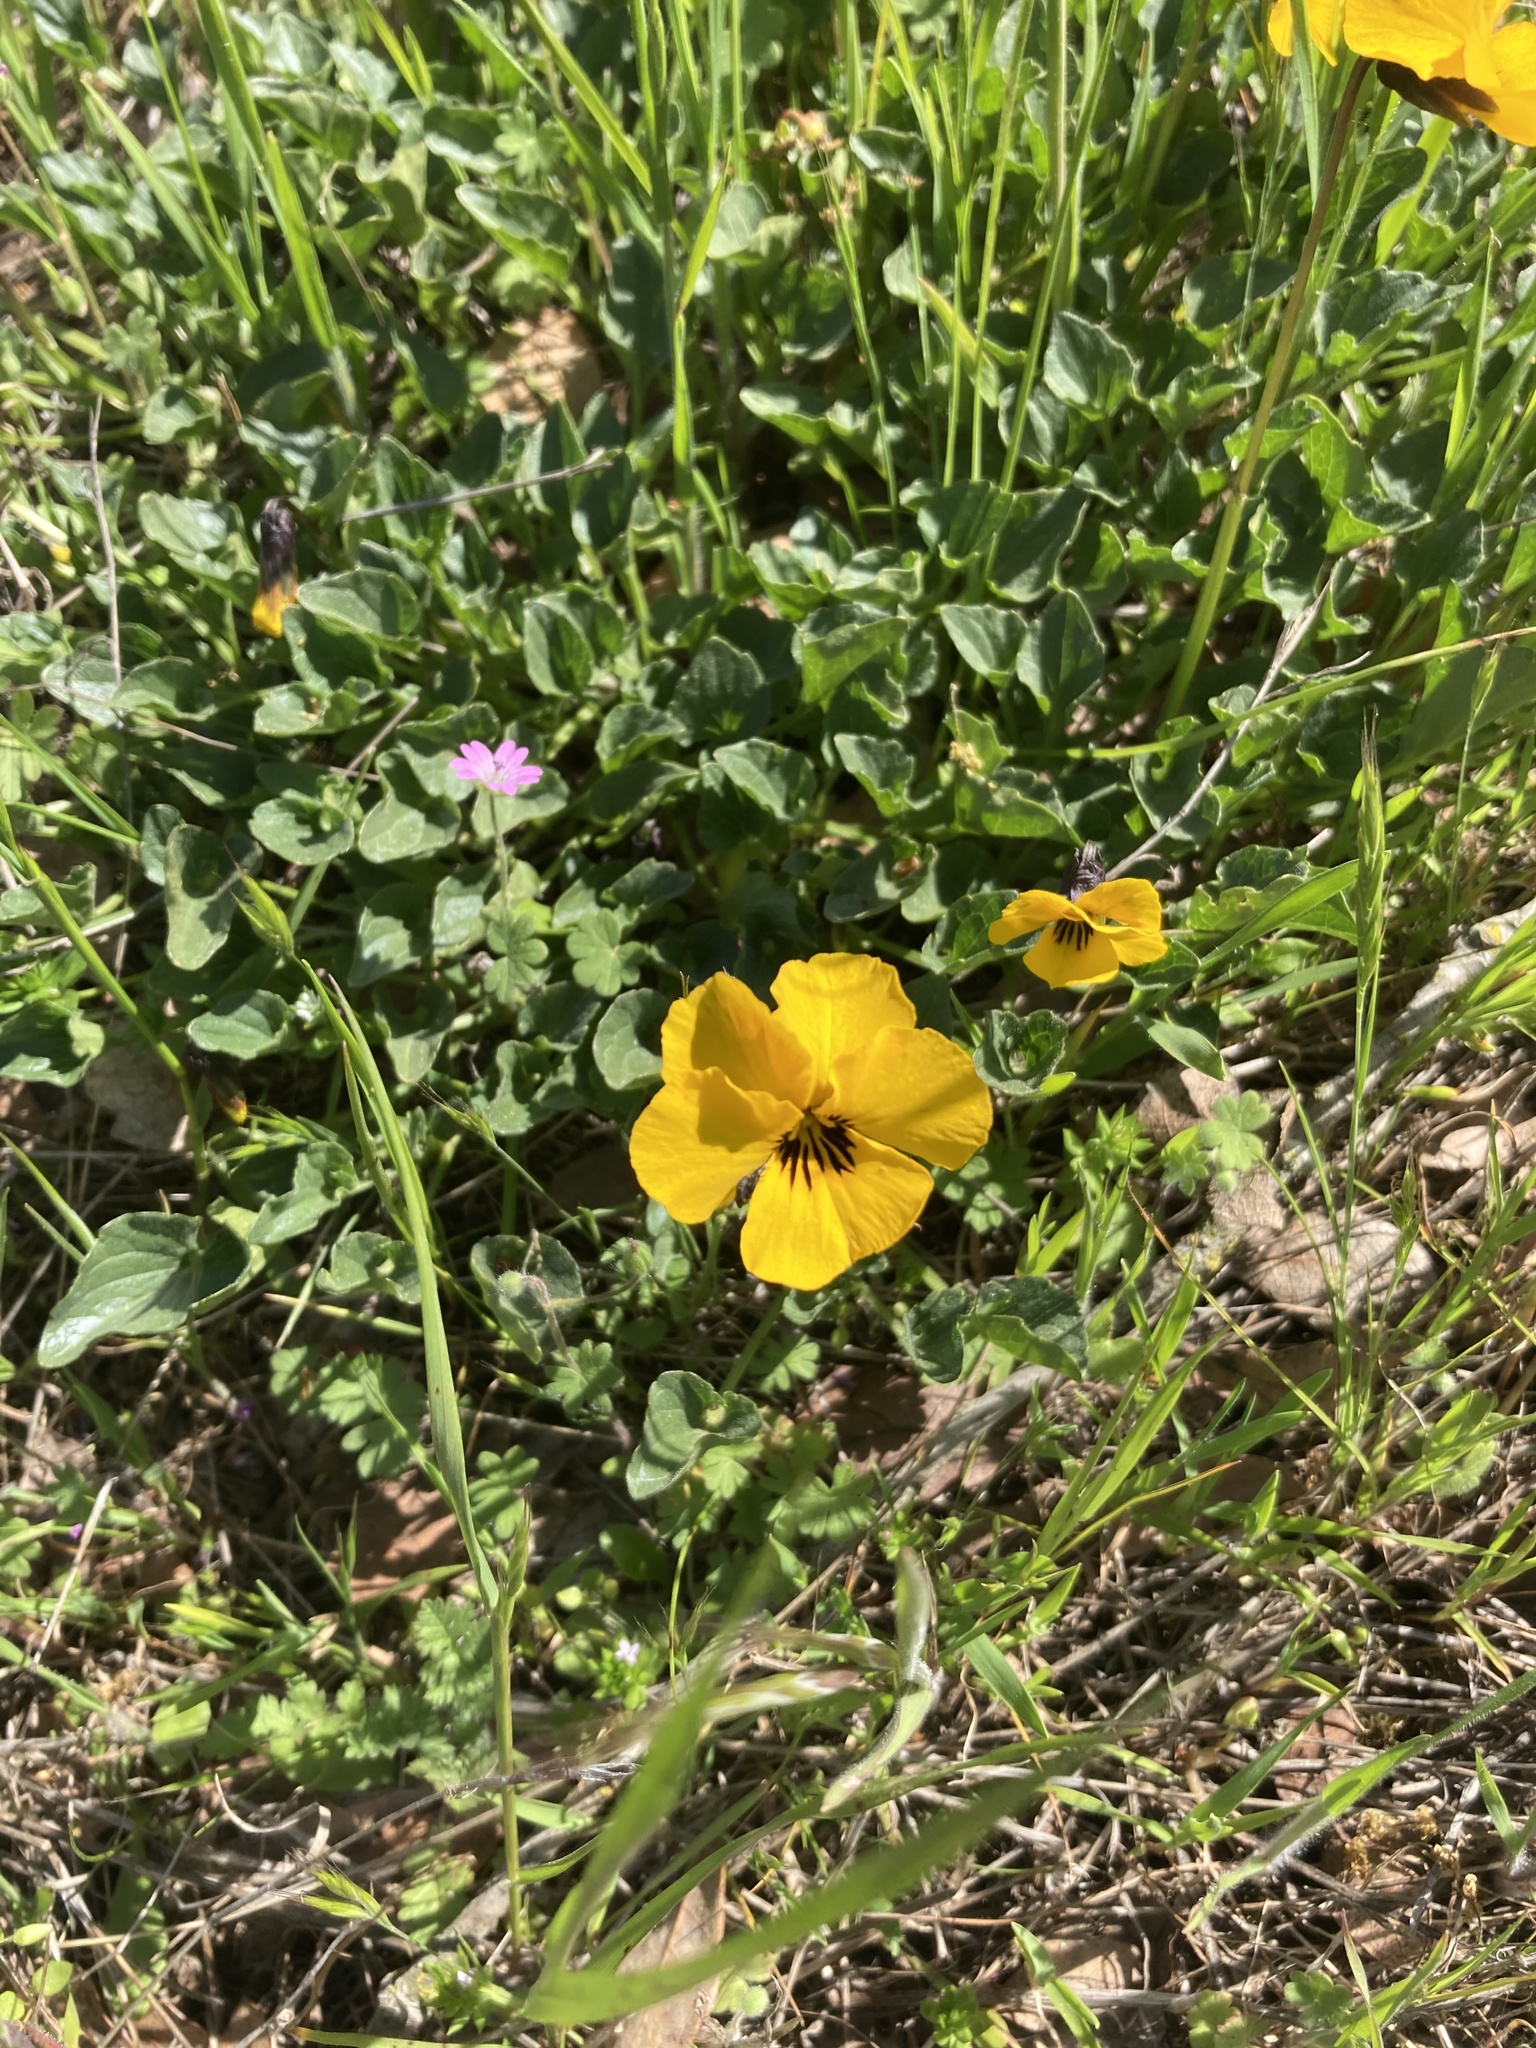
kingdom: Plantae
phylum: Tracheophyta
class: Magnoliopsida
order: Malpighiales
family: Violaceae
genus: Viola
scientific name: Viola pedunculata
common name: California golden violet
